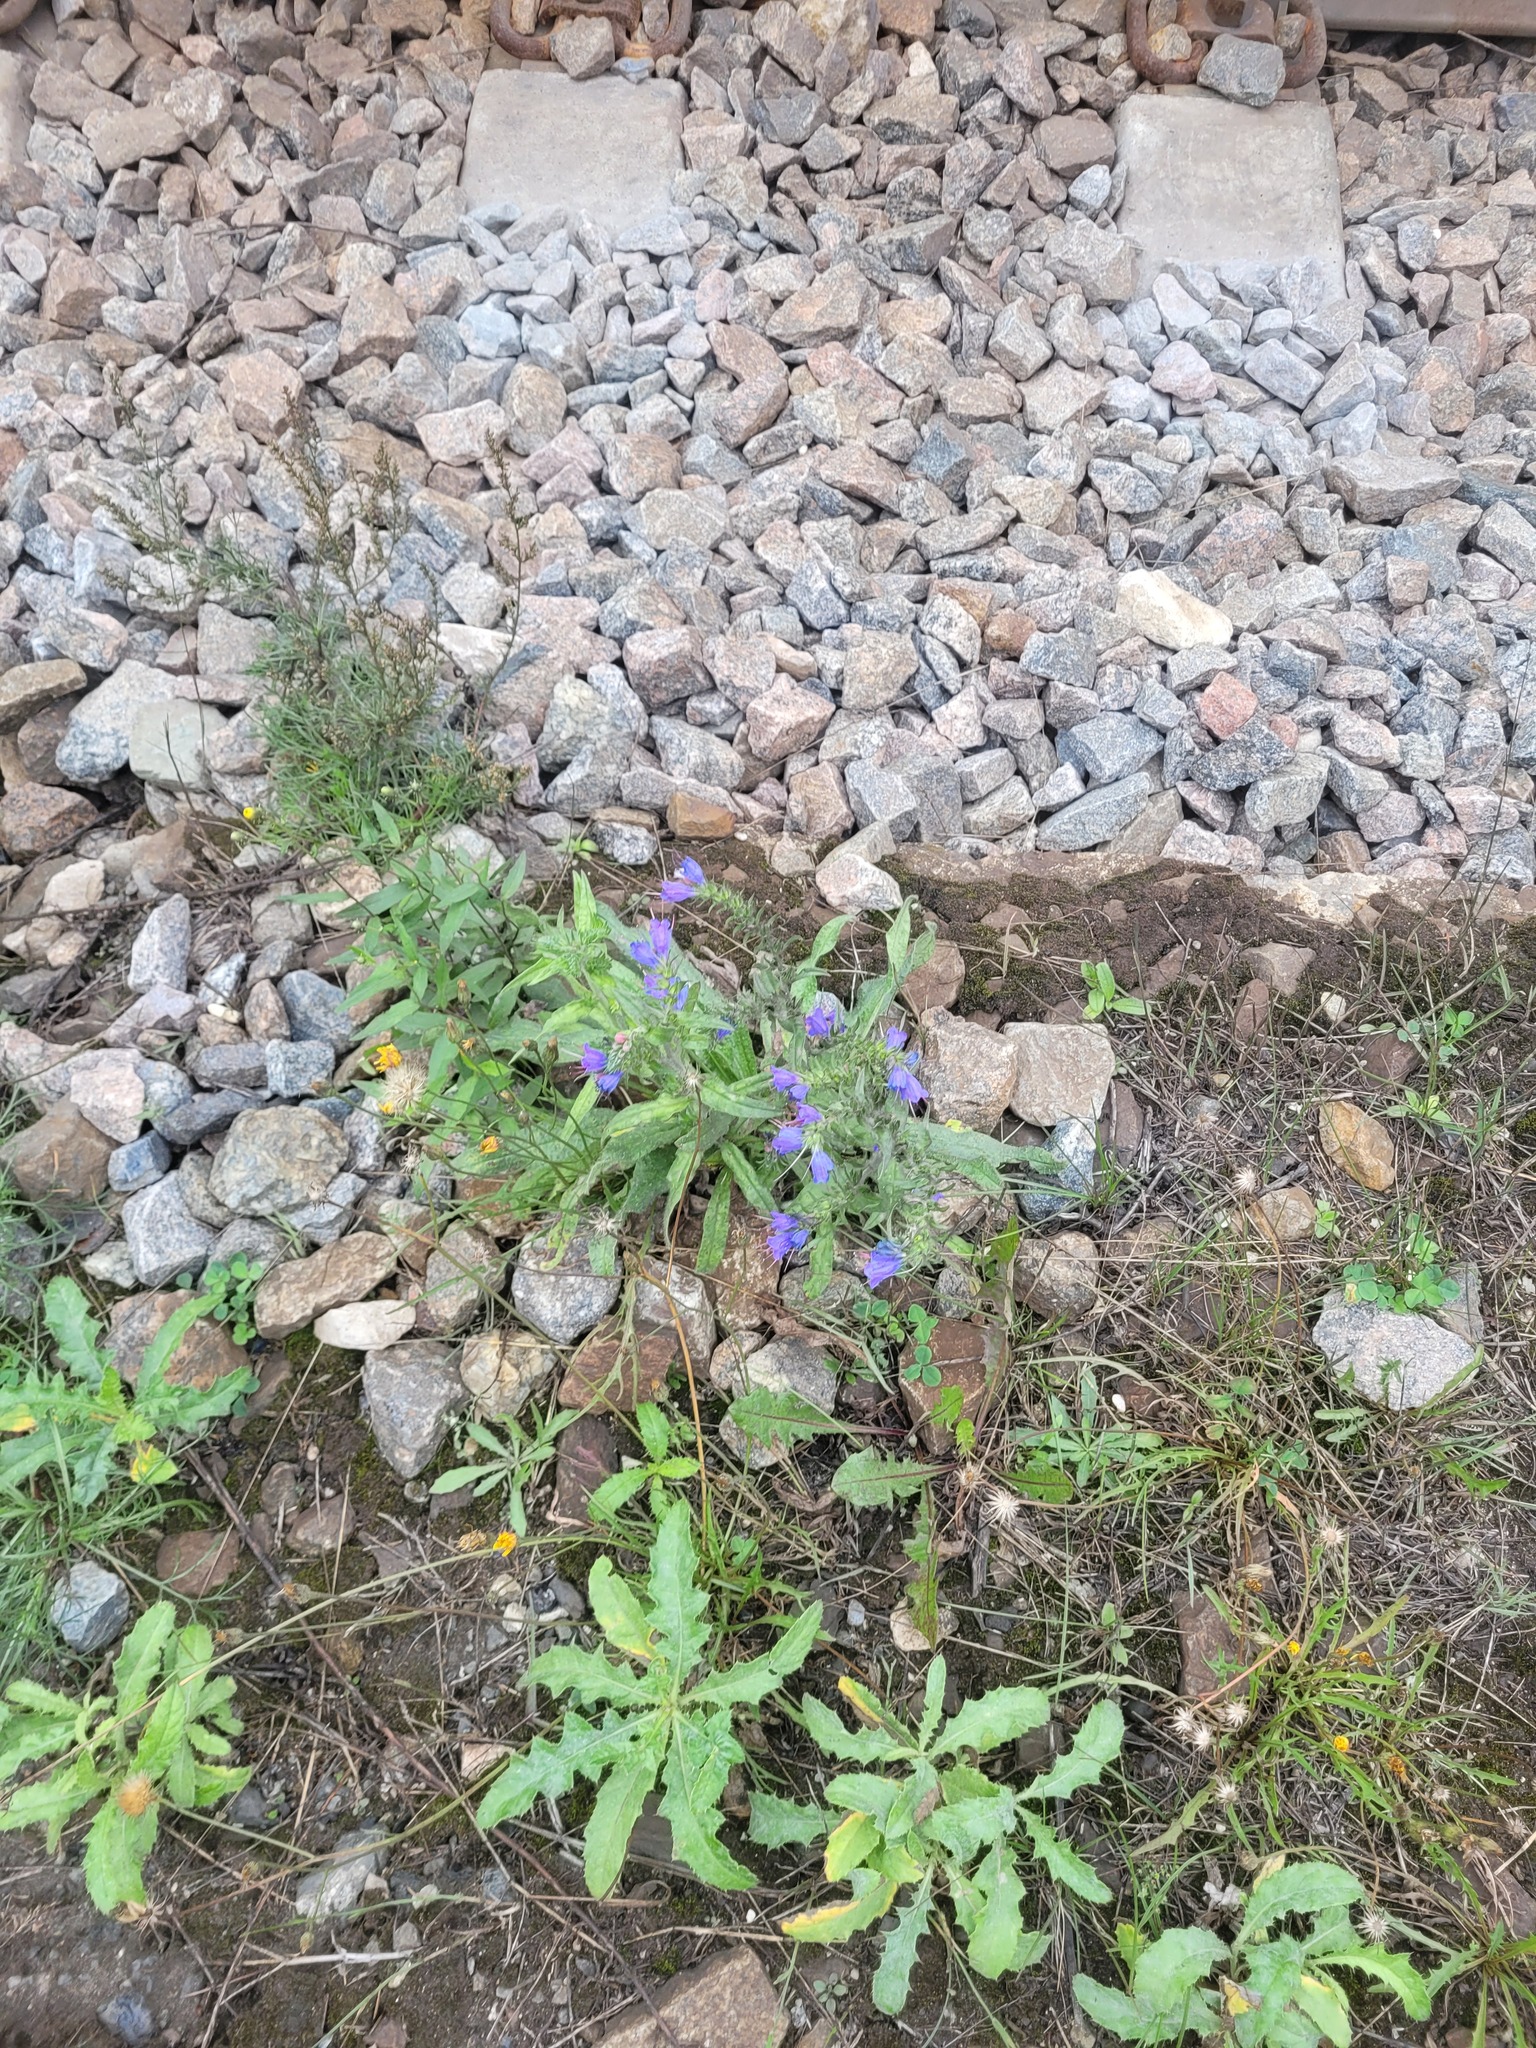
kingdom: Plantae
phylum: Tracheophyta
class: Magnoliopsida
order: Boraginales
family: Boraginaceae
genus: Echium
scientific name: Echium vulgare
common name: Common viper's bugloss
